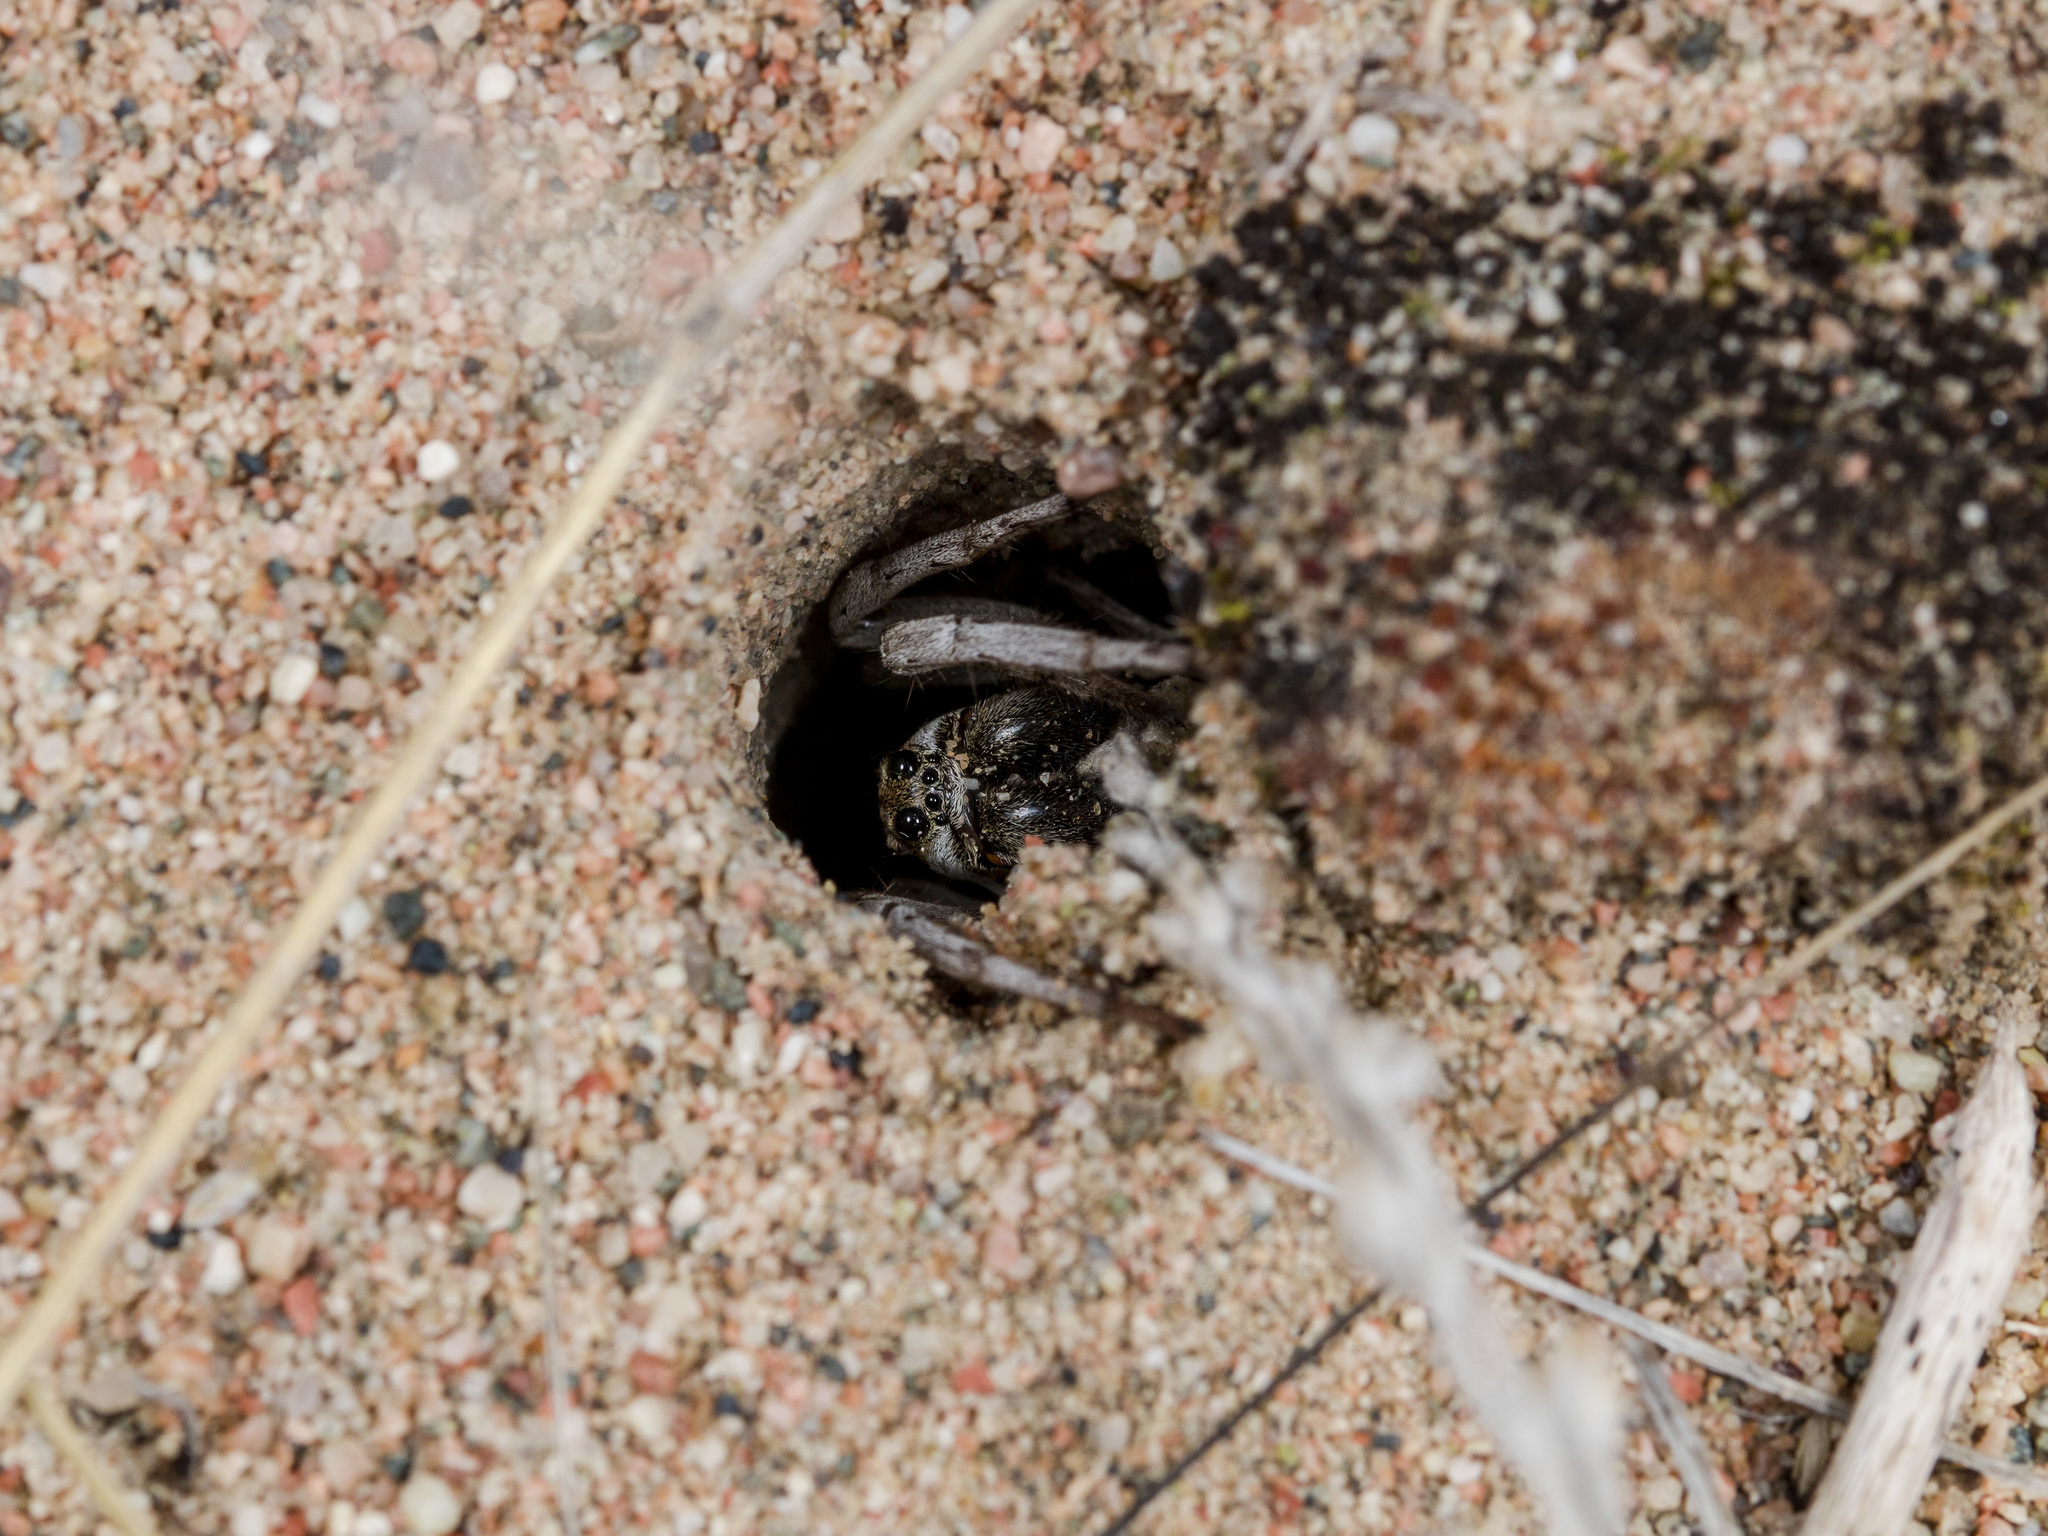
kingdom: Animalia
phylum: Arthropoda
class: Arachnida
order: Araneae
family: Lycosidae
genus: Alopecosa
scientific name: Alopecosa marikovskyi
